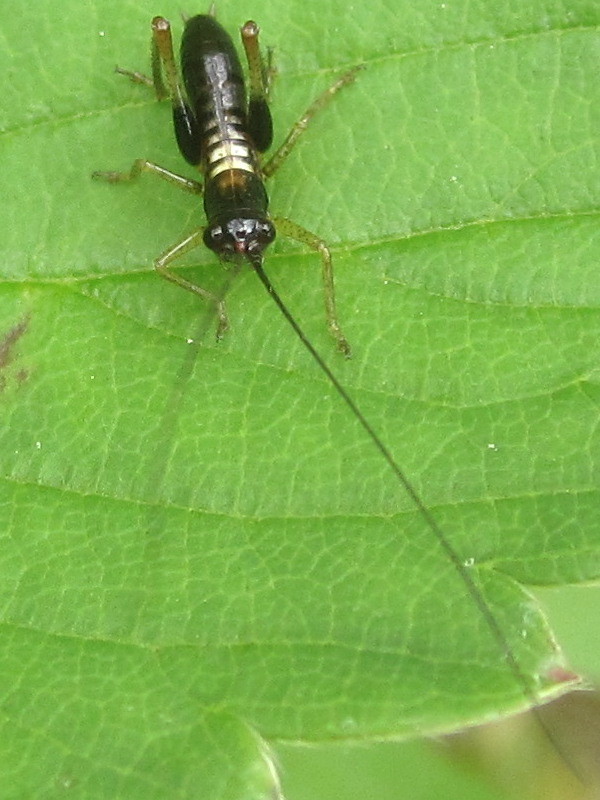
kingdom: Animalia
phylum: Arthropoda
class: Insecta
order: Orthoptera
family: Tettigoniidae
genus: Conocephalus
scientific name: Conocephalus nigropleurum
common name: Black-sided meadow katydid
